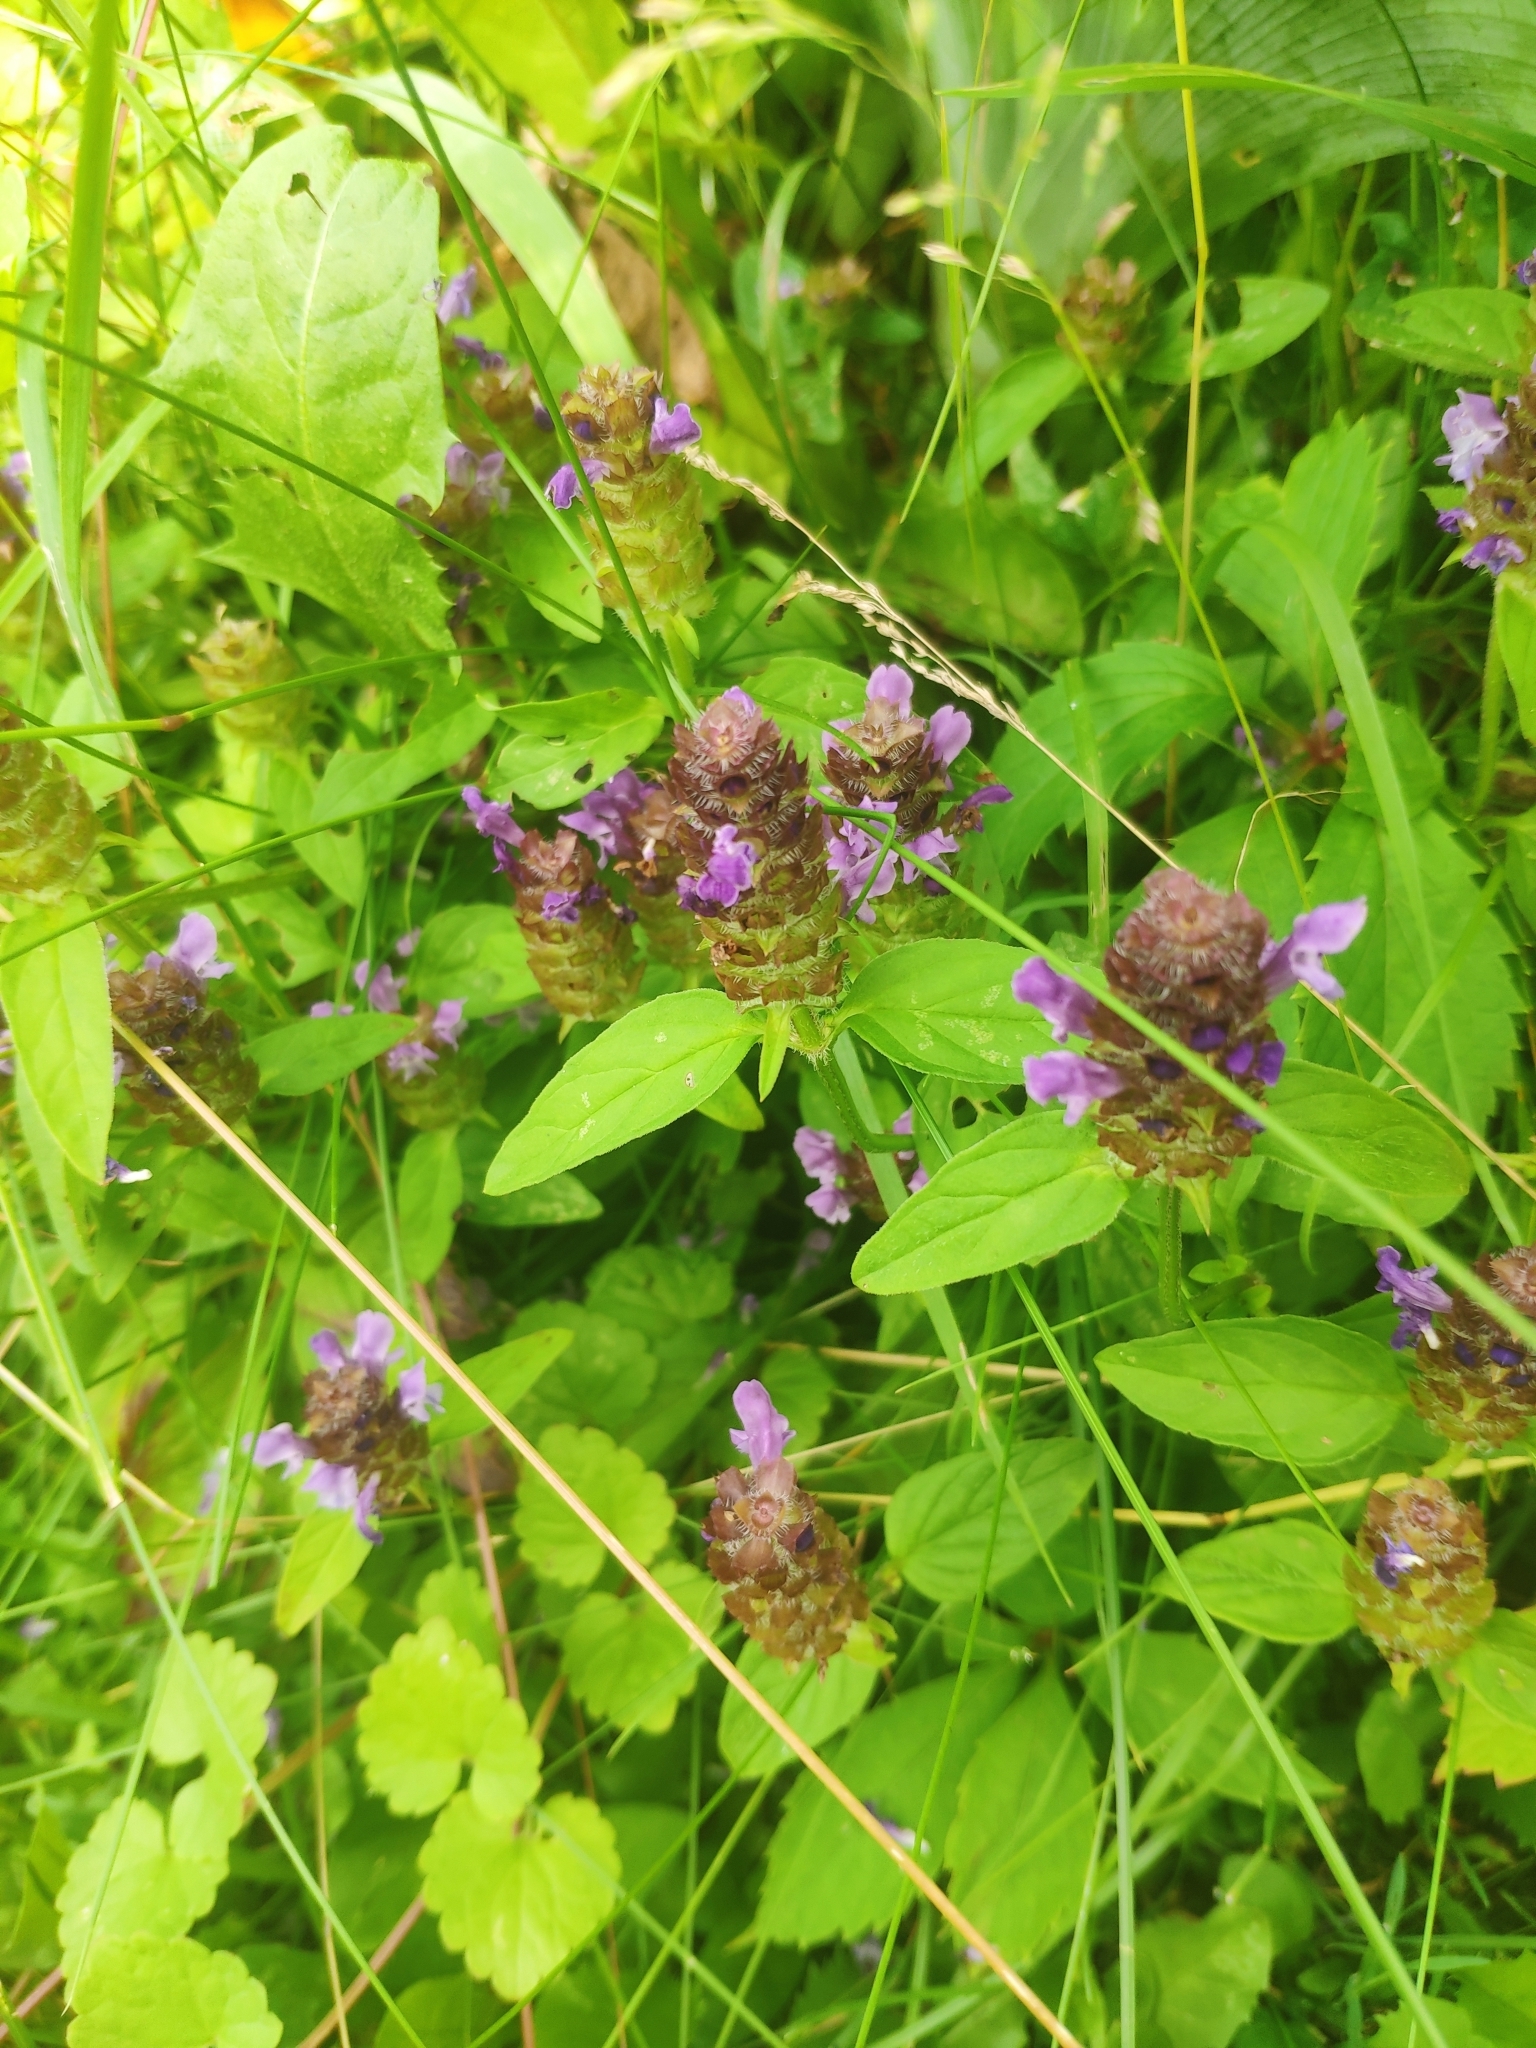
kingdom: Plantae
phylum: Tracheophyta
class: Magnoliopsida
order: Lamiales
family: Lamiaceae
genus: Prunella
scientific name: Prunella vulgaris
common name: Heal-all
